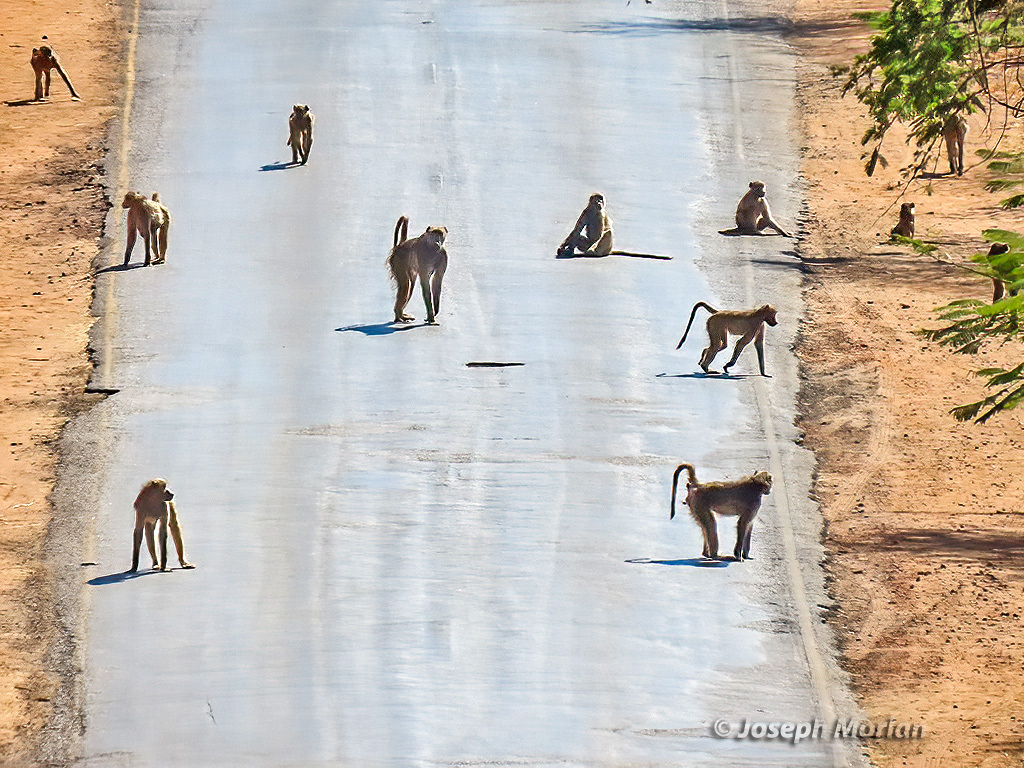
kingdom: Animalia
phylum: Chordata
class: Mammalia
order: Primates
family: Cercopithecidae
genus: Papio
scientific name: Papio ursinus
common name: Chacma baboon
